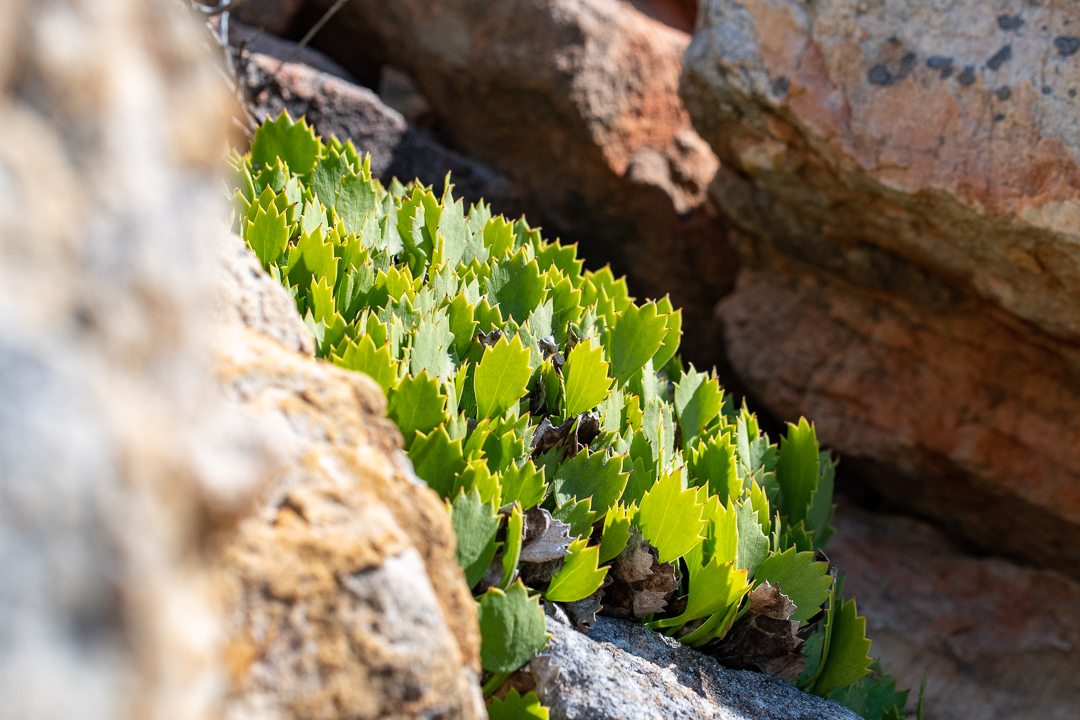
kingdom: Plantae
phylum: Tracheophyta
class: Magnoliopsida
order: Apiales
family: Apiaceae
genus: Centella
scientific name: Centella triloba
